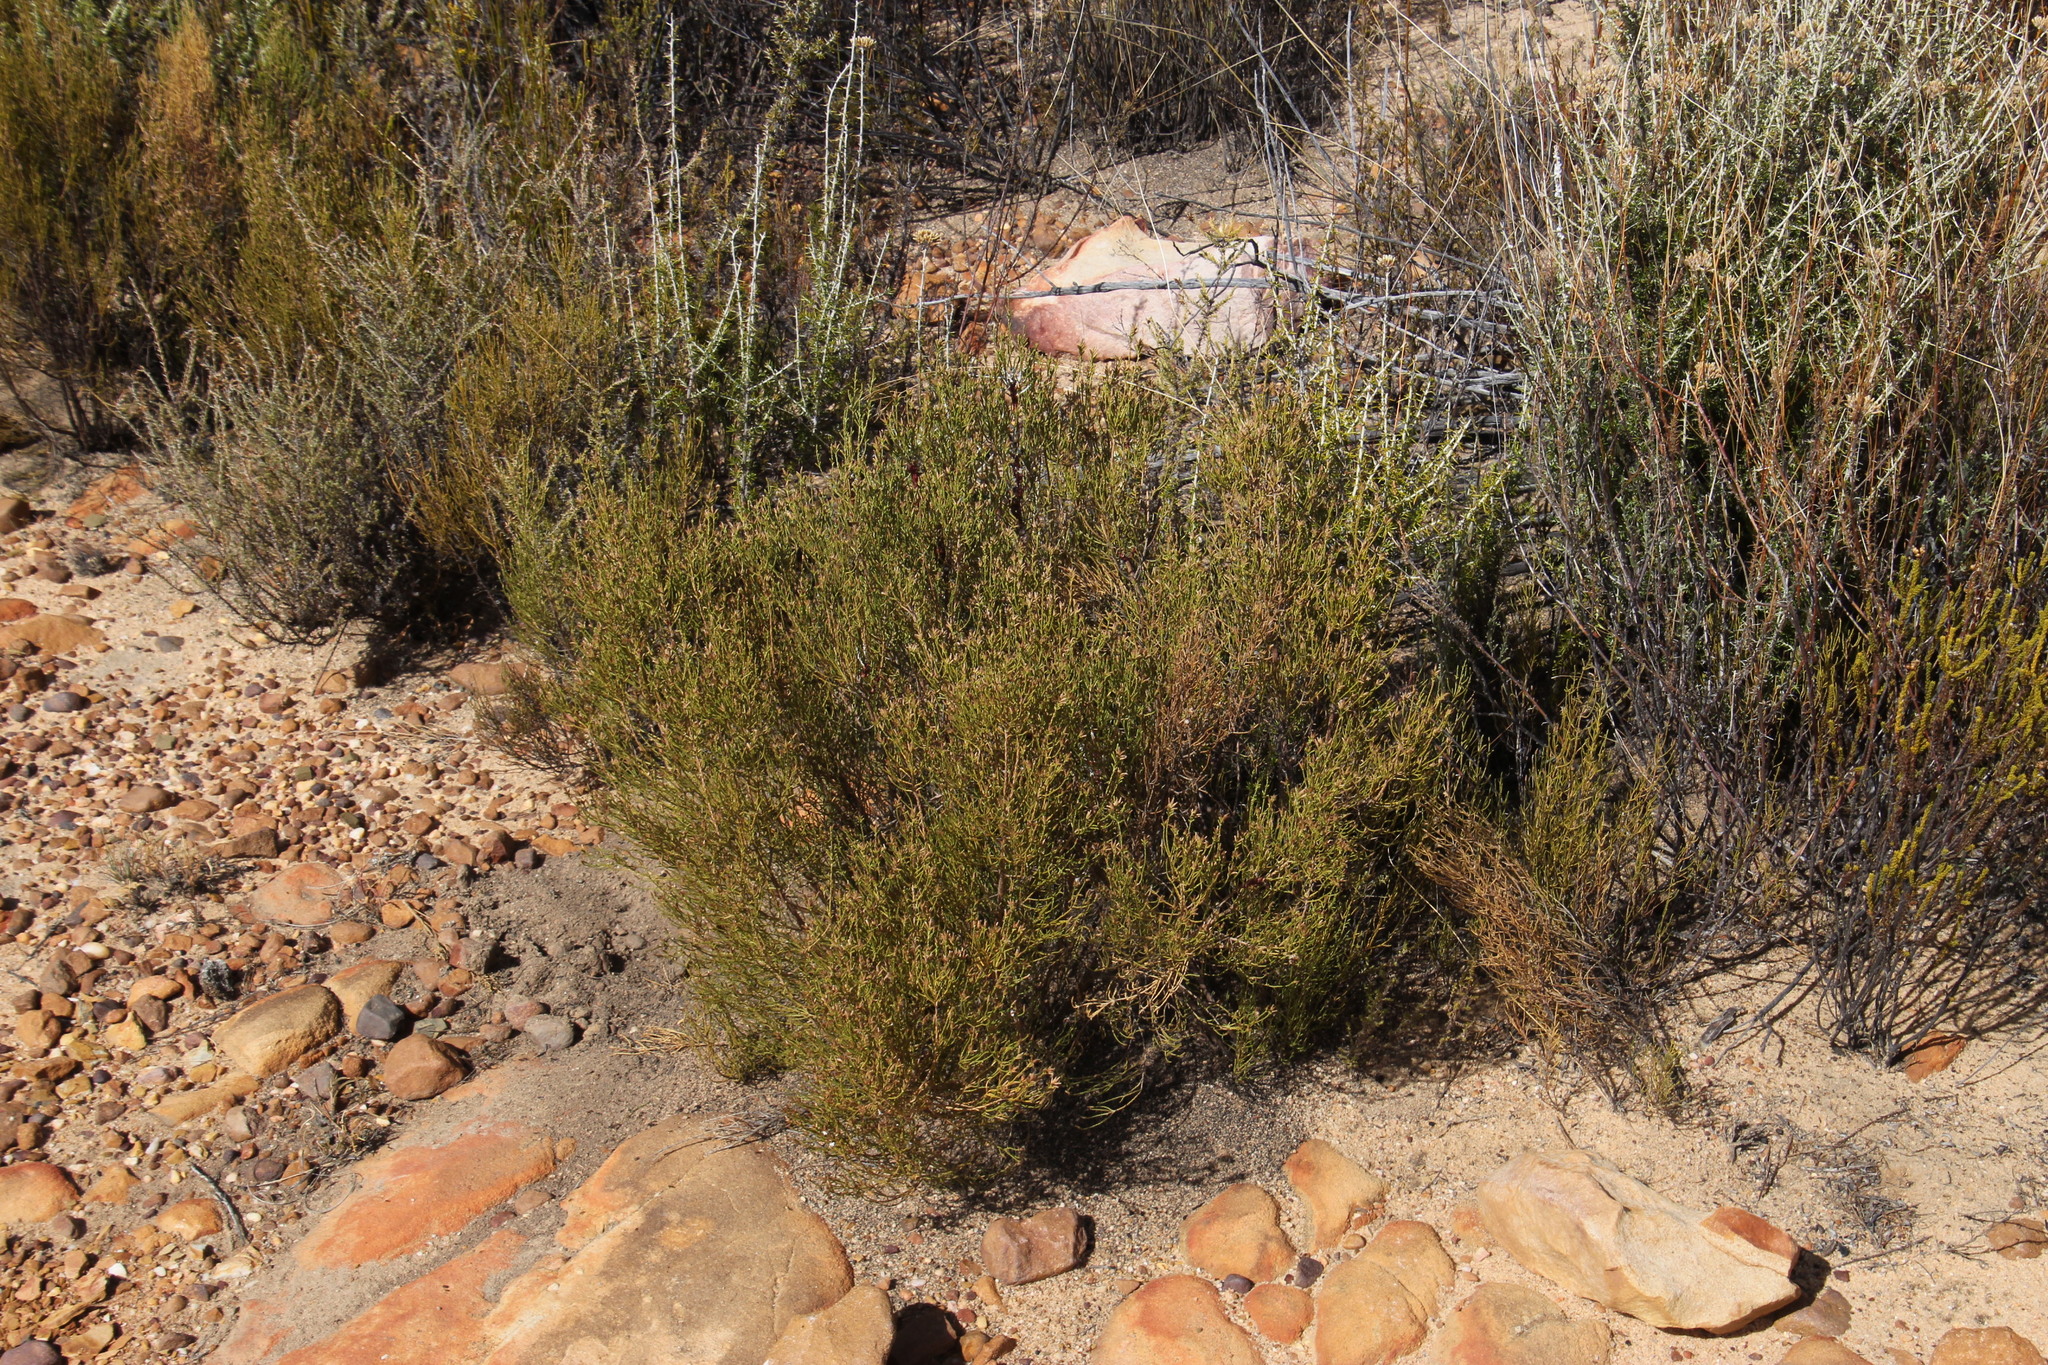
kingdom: Plantae
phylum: Tracheophyta
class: Magnoliopsida
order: Asterales
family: Asteraceae
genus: Dicerothamnus
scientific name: Dicerothamnus adpressus
